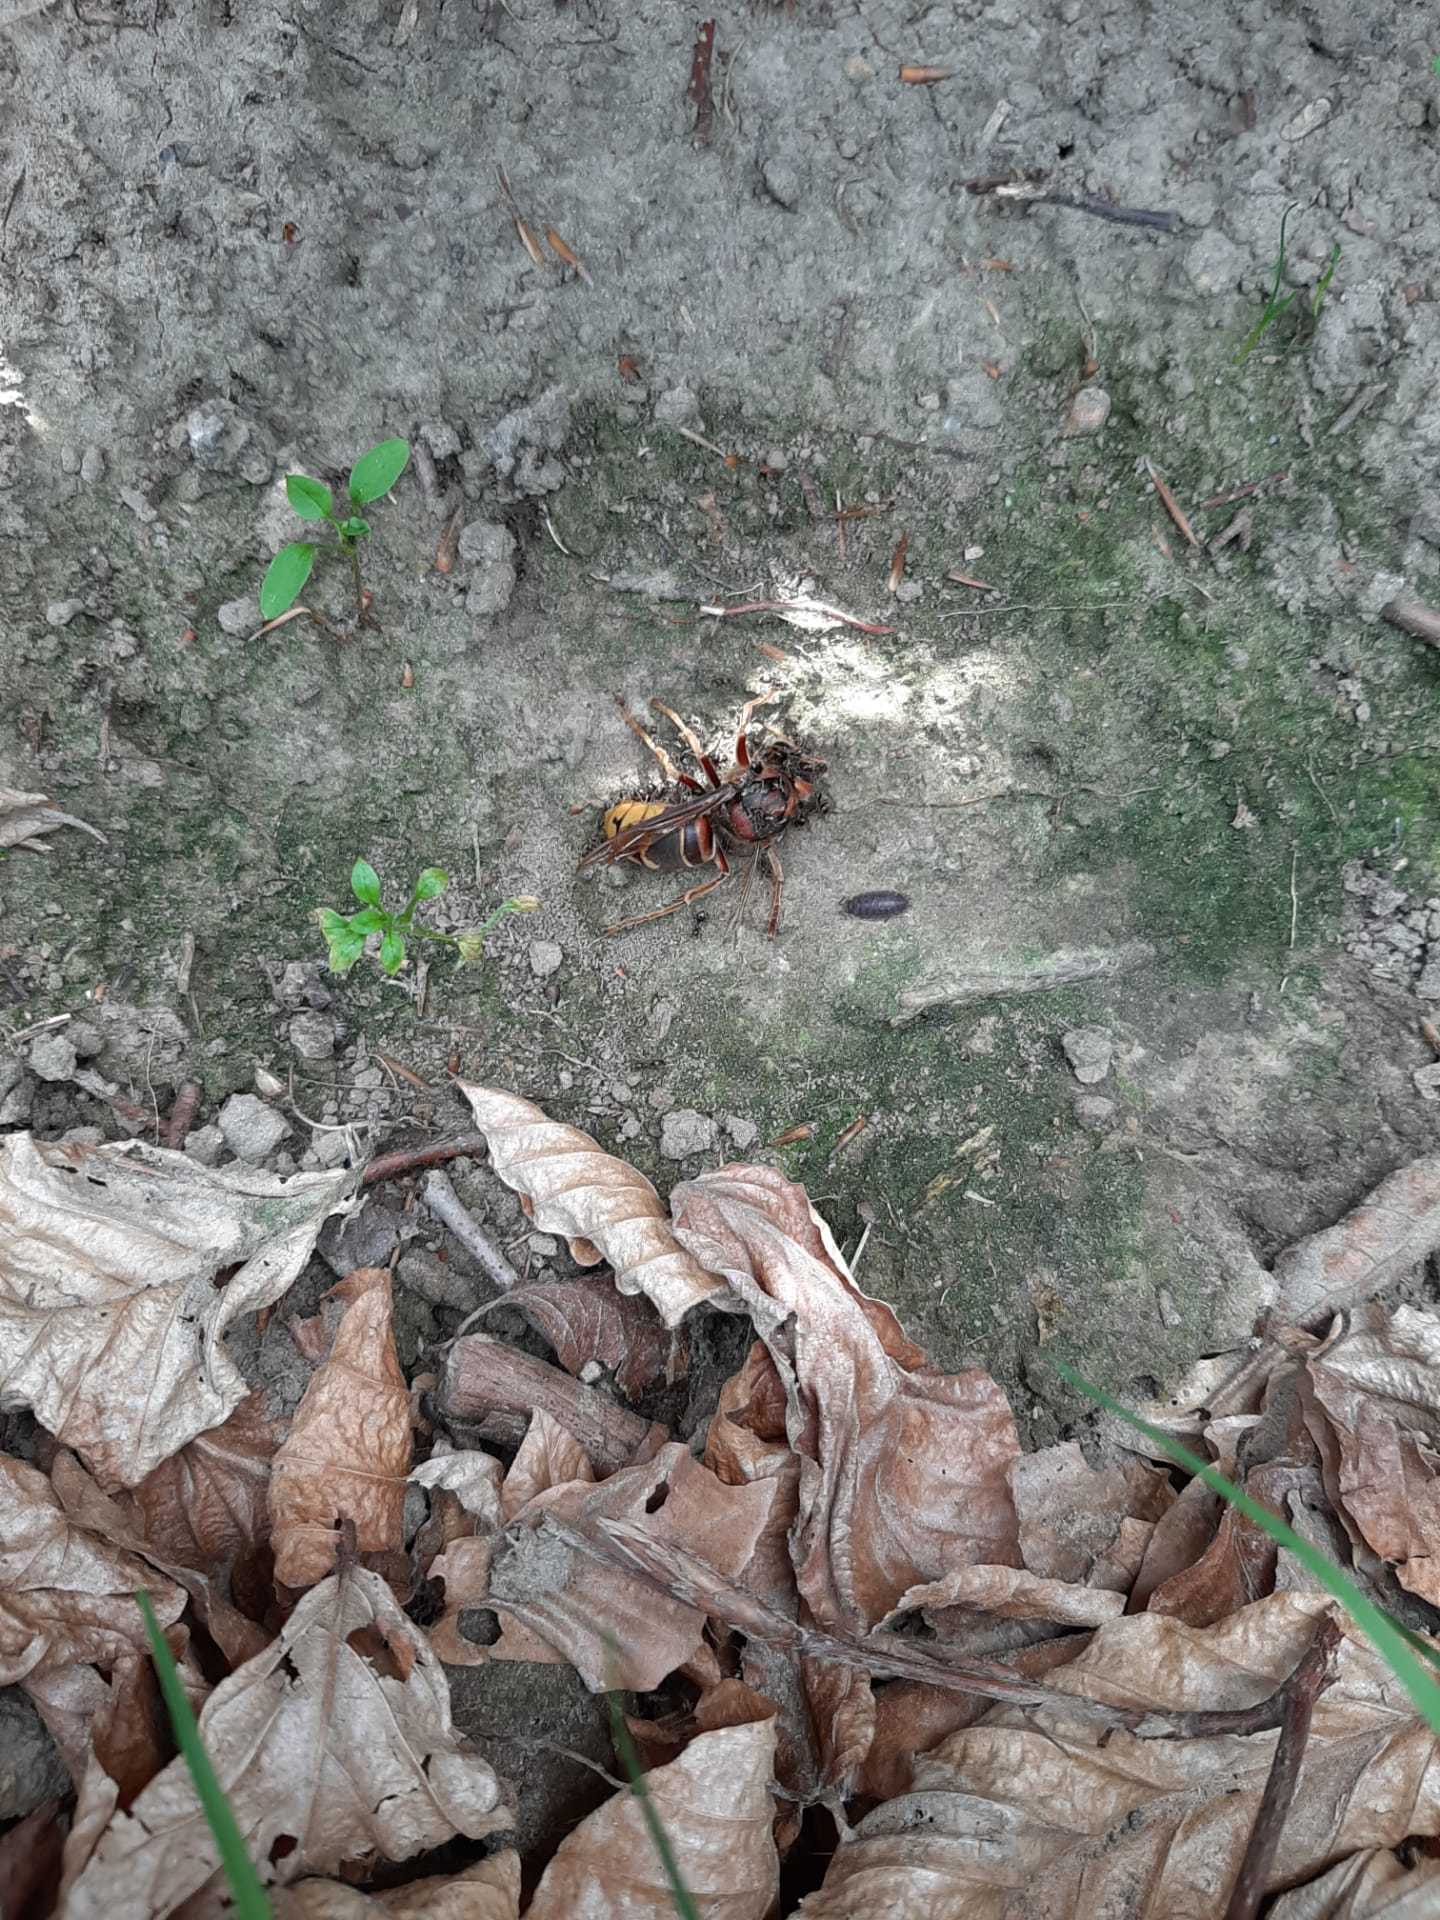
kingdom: Animalia
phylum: Arthropoda
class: Insecta
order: Hymenoptera
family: Vespidae
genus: Vespa
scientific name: Vespa crabro
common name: Hornet
